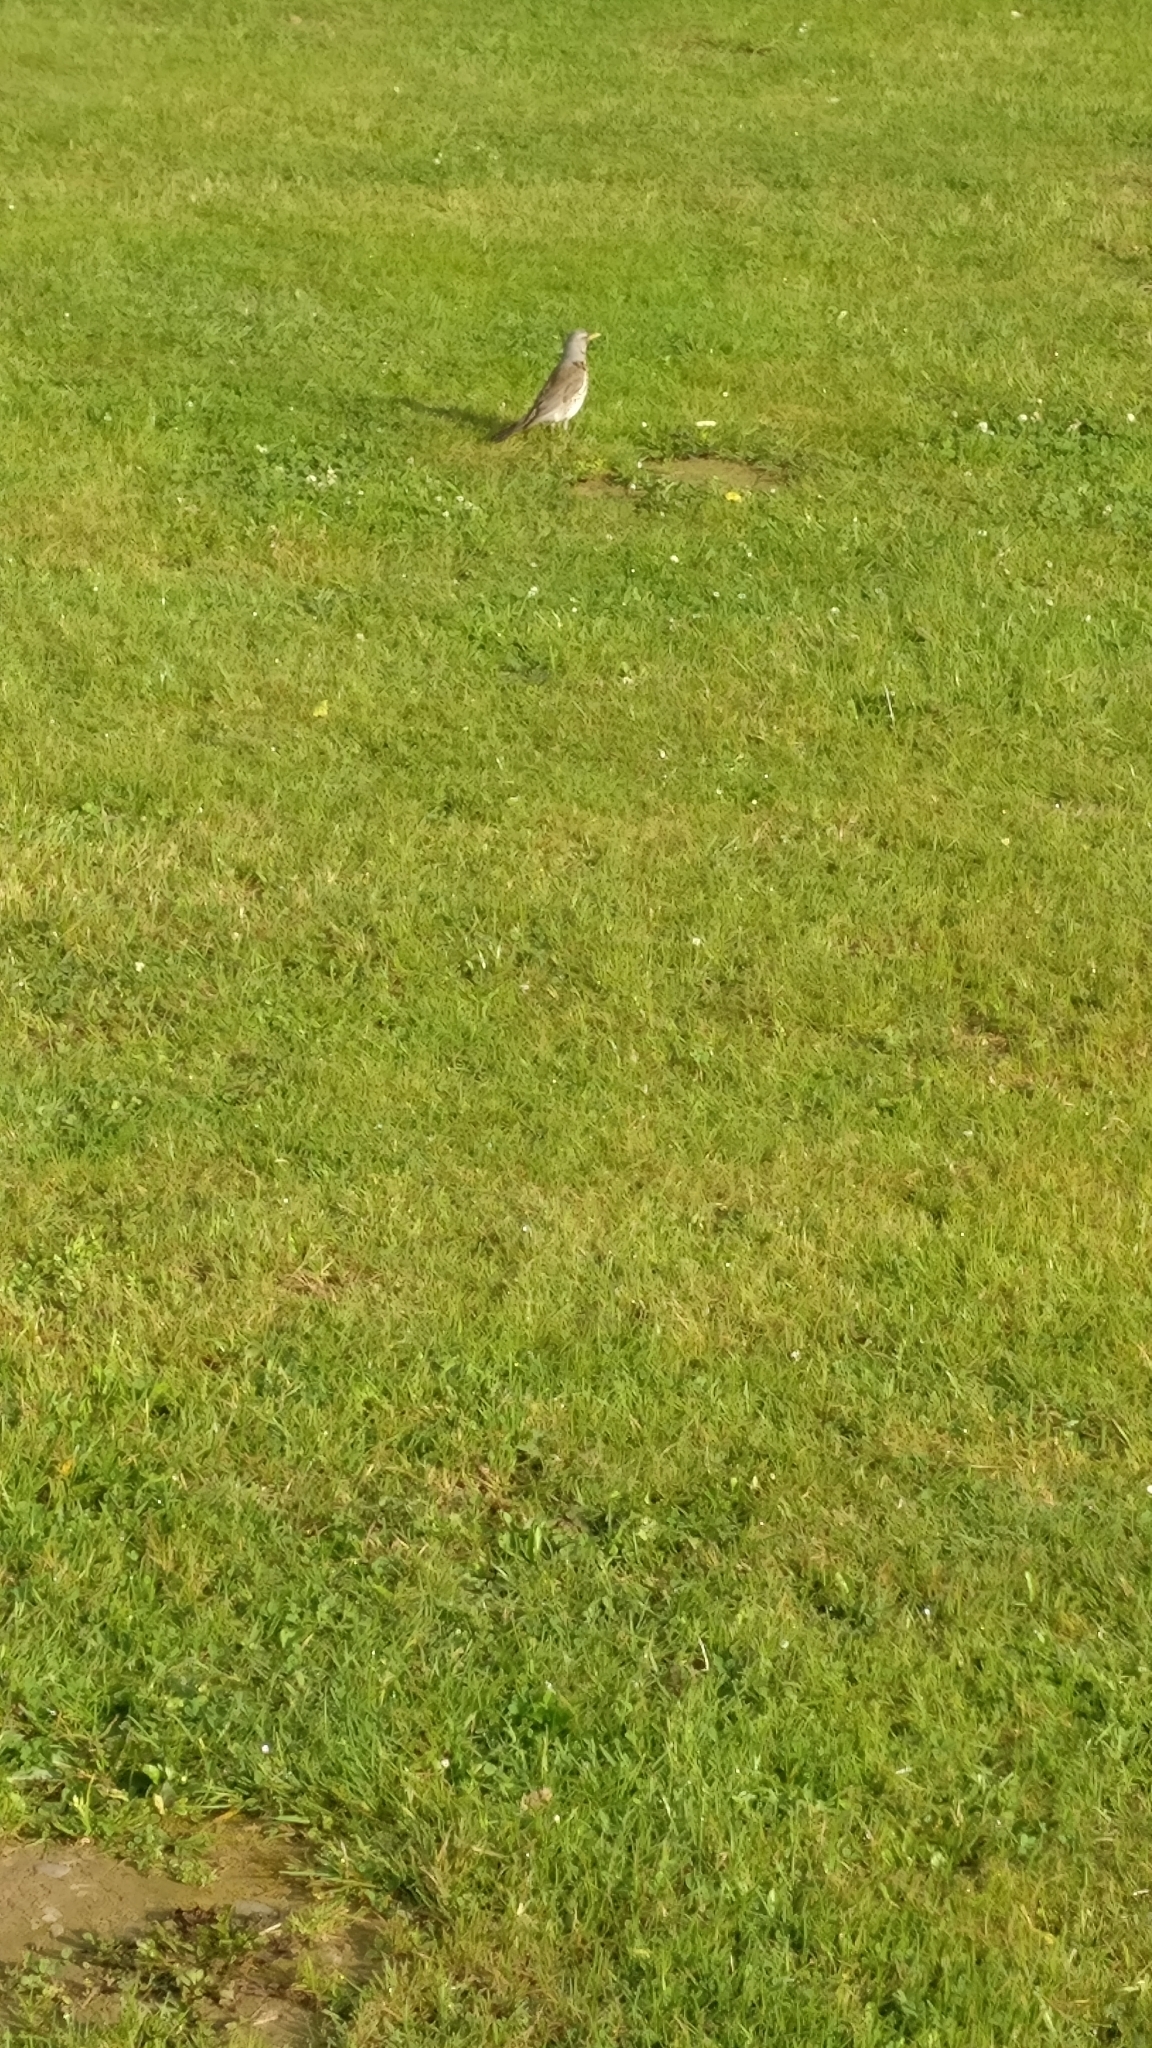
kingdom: Animalia
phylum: Chordata
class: Aves
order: Passeriformes
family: Turdidae
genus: Turdus
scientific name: Turdus pilaris
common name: Fieldfare
